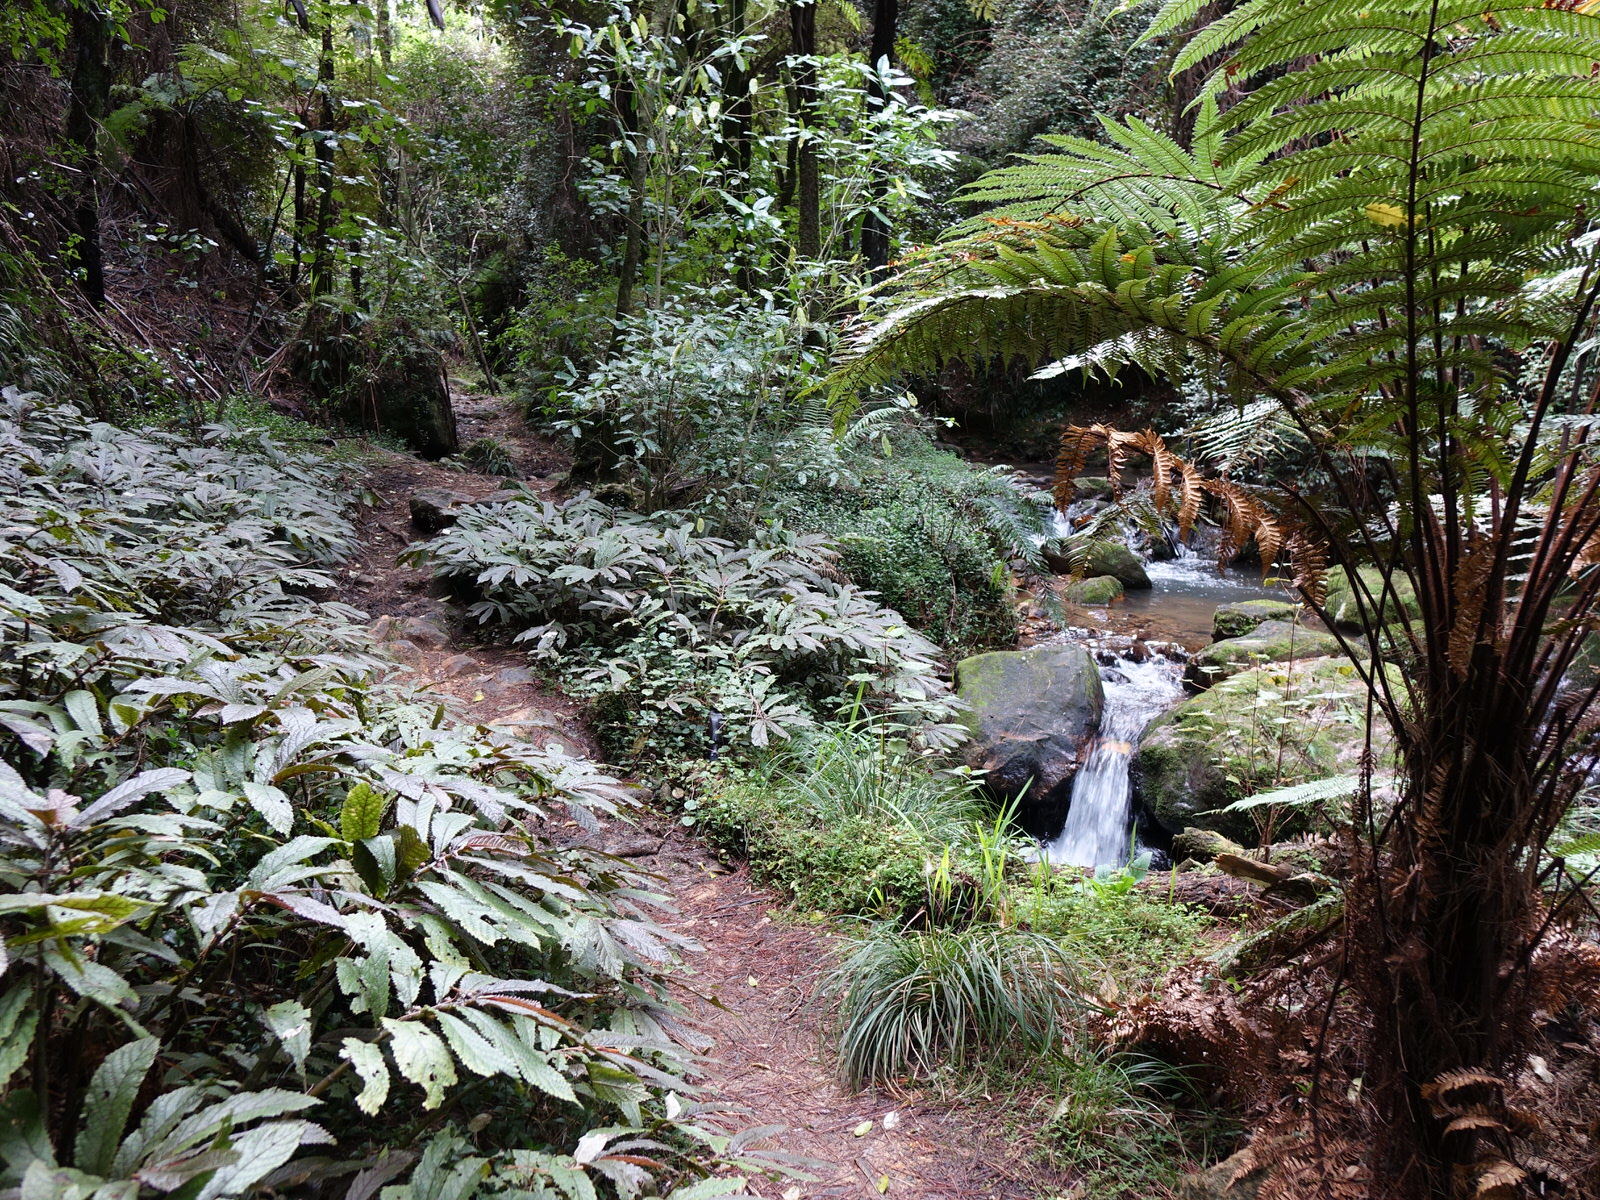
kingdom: Plantae
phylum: Tracheophyta
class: Magnoliopsida
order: Rosales
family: Urticaceae
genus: Elatostema
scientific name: Elatostema rugosum
